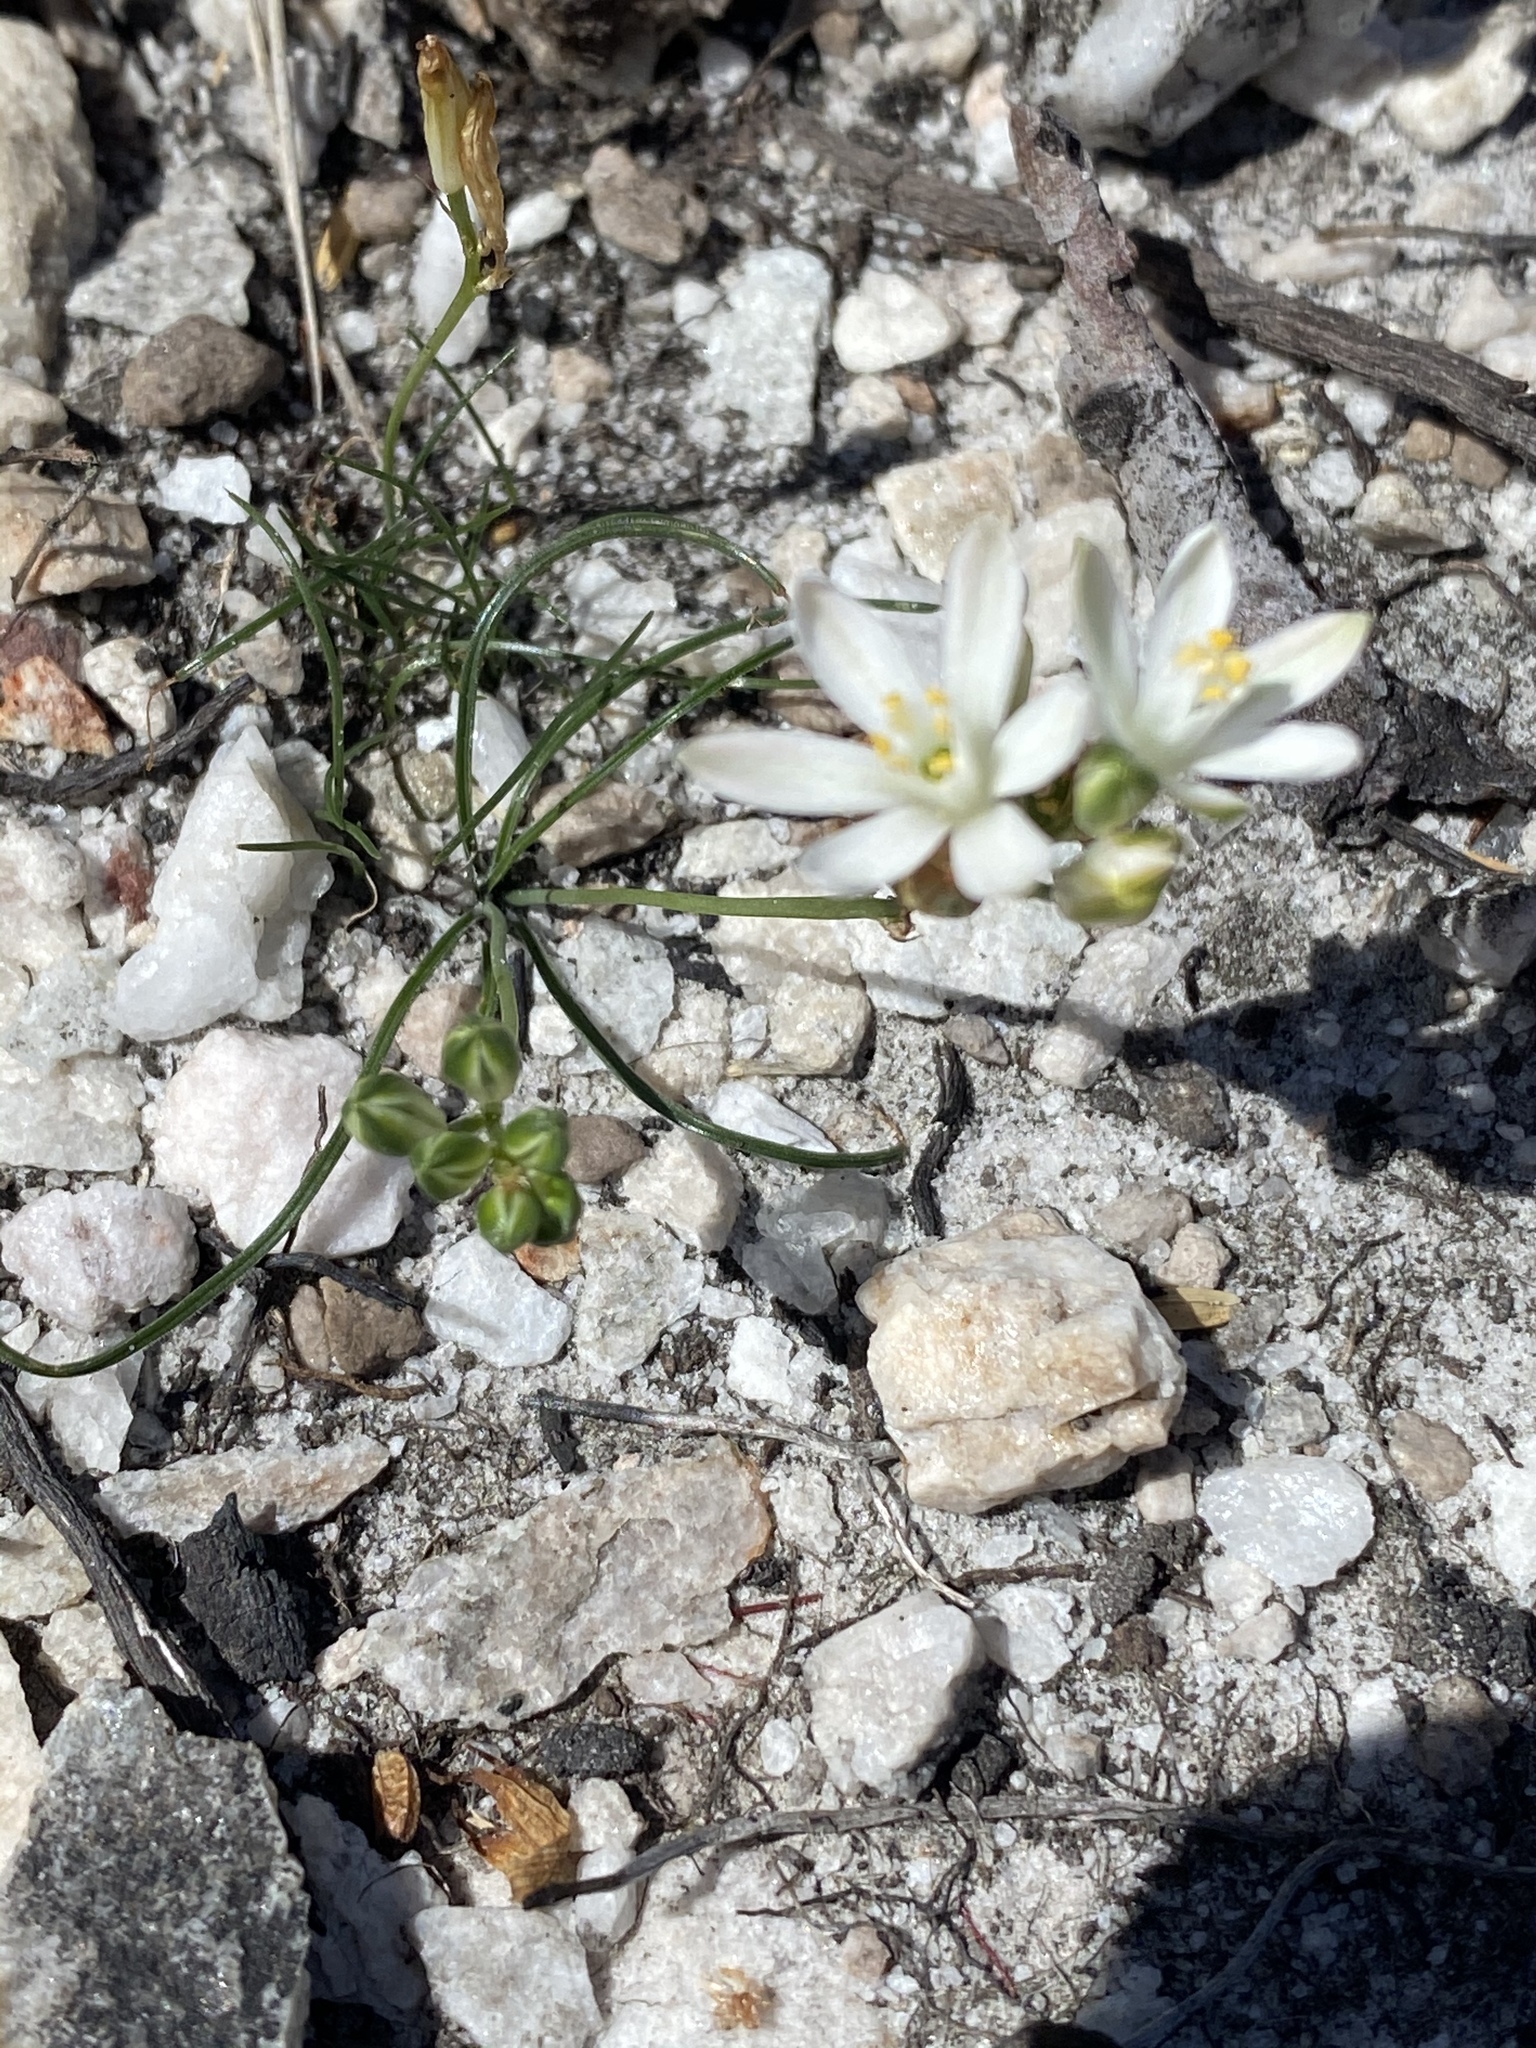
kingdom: Plantae
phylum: Tracheophyta
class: Liliopsida
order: Asparagales
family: Asparagaceae
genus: Ornithogalum
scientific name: Ornithogalum niveum
